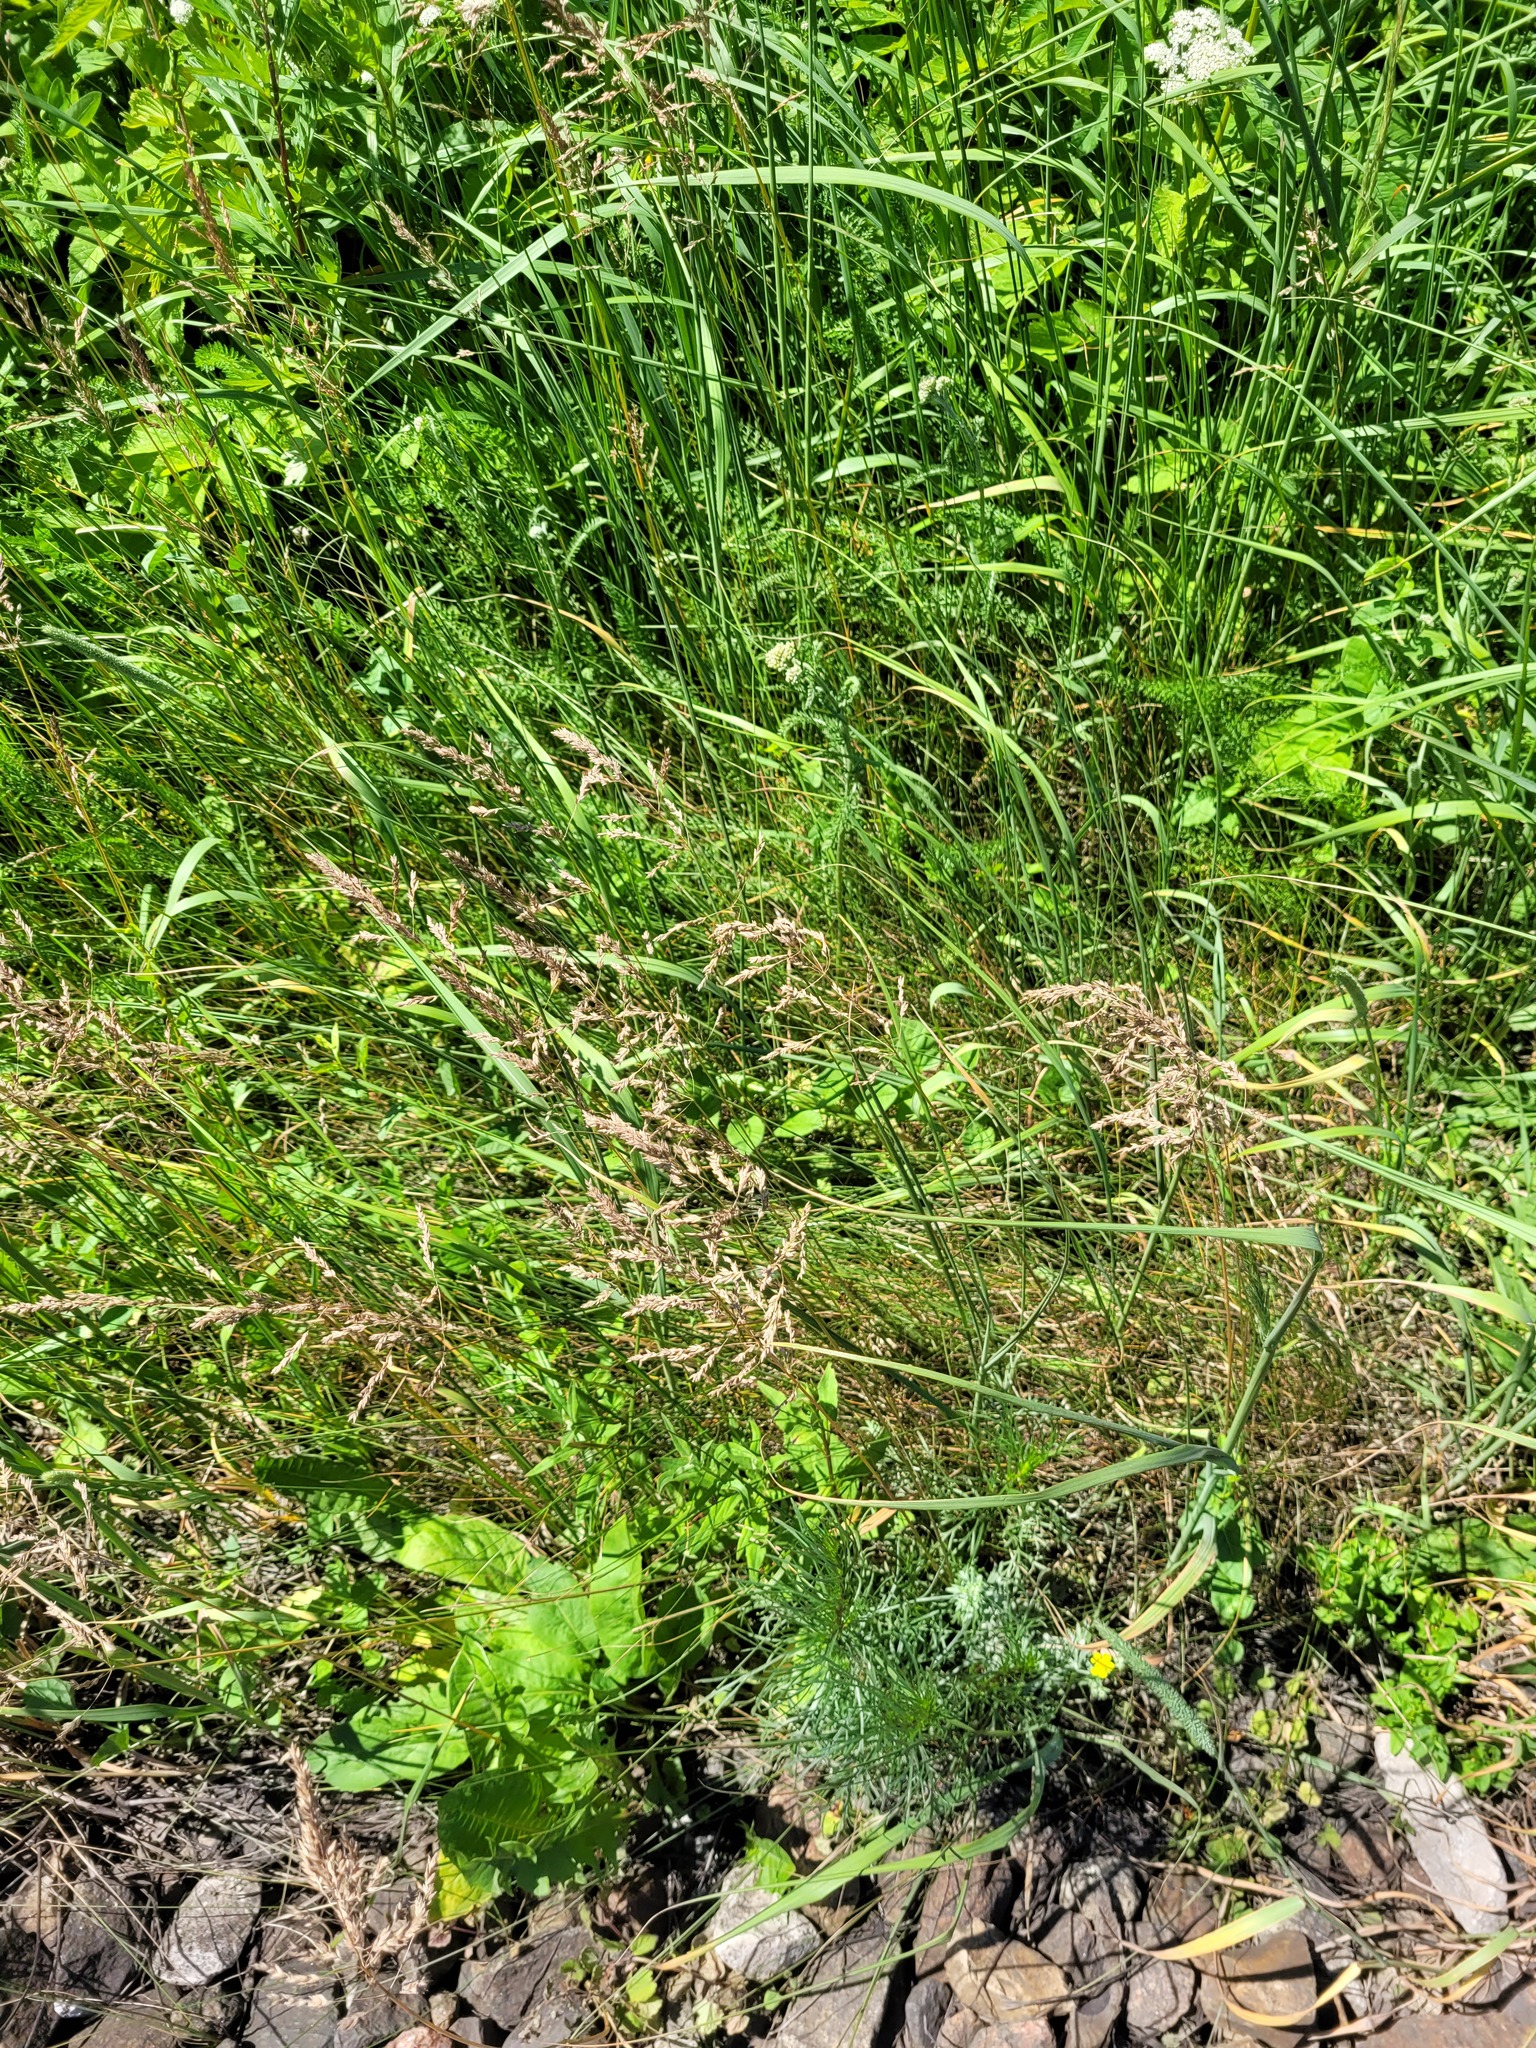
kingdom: Plantae
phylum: Tracheophyta
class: Liliopsida
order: Poales
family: Poaceae
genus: Poa
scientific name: Poa angustifolia
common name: Narrow-leaved meadow-grass
